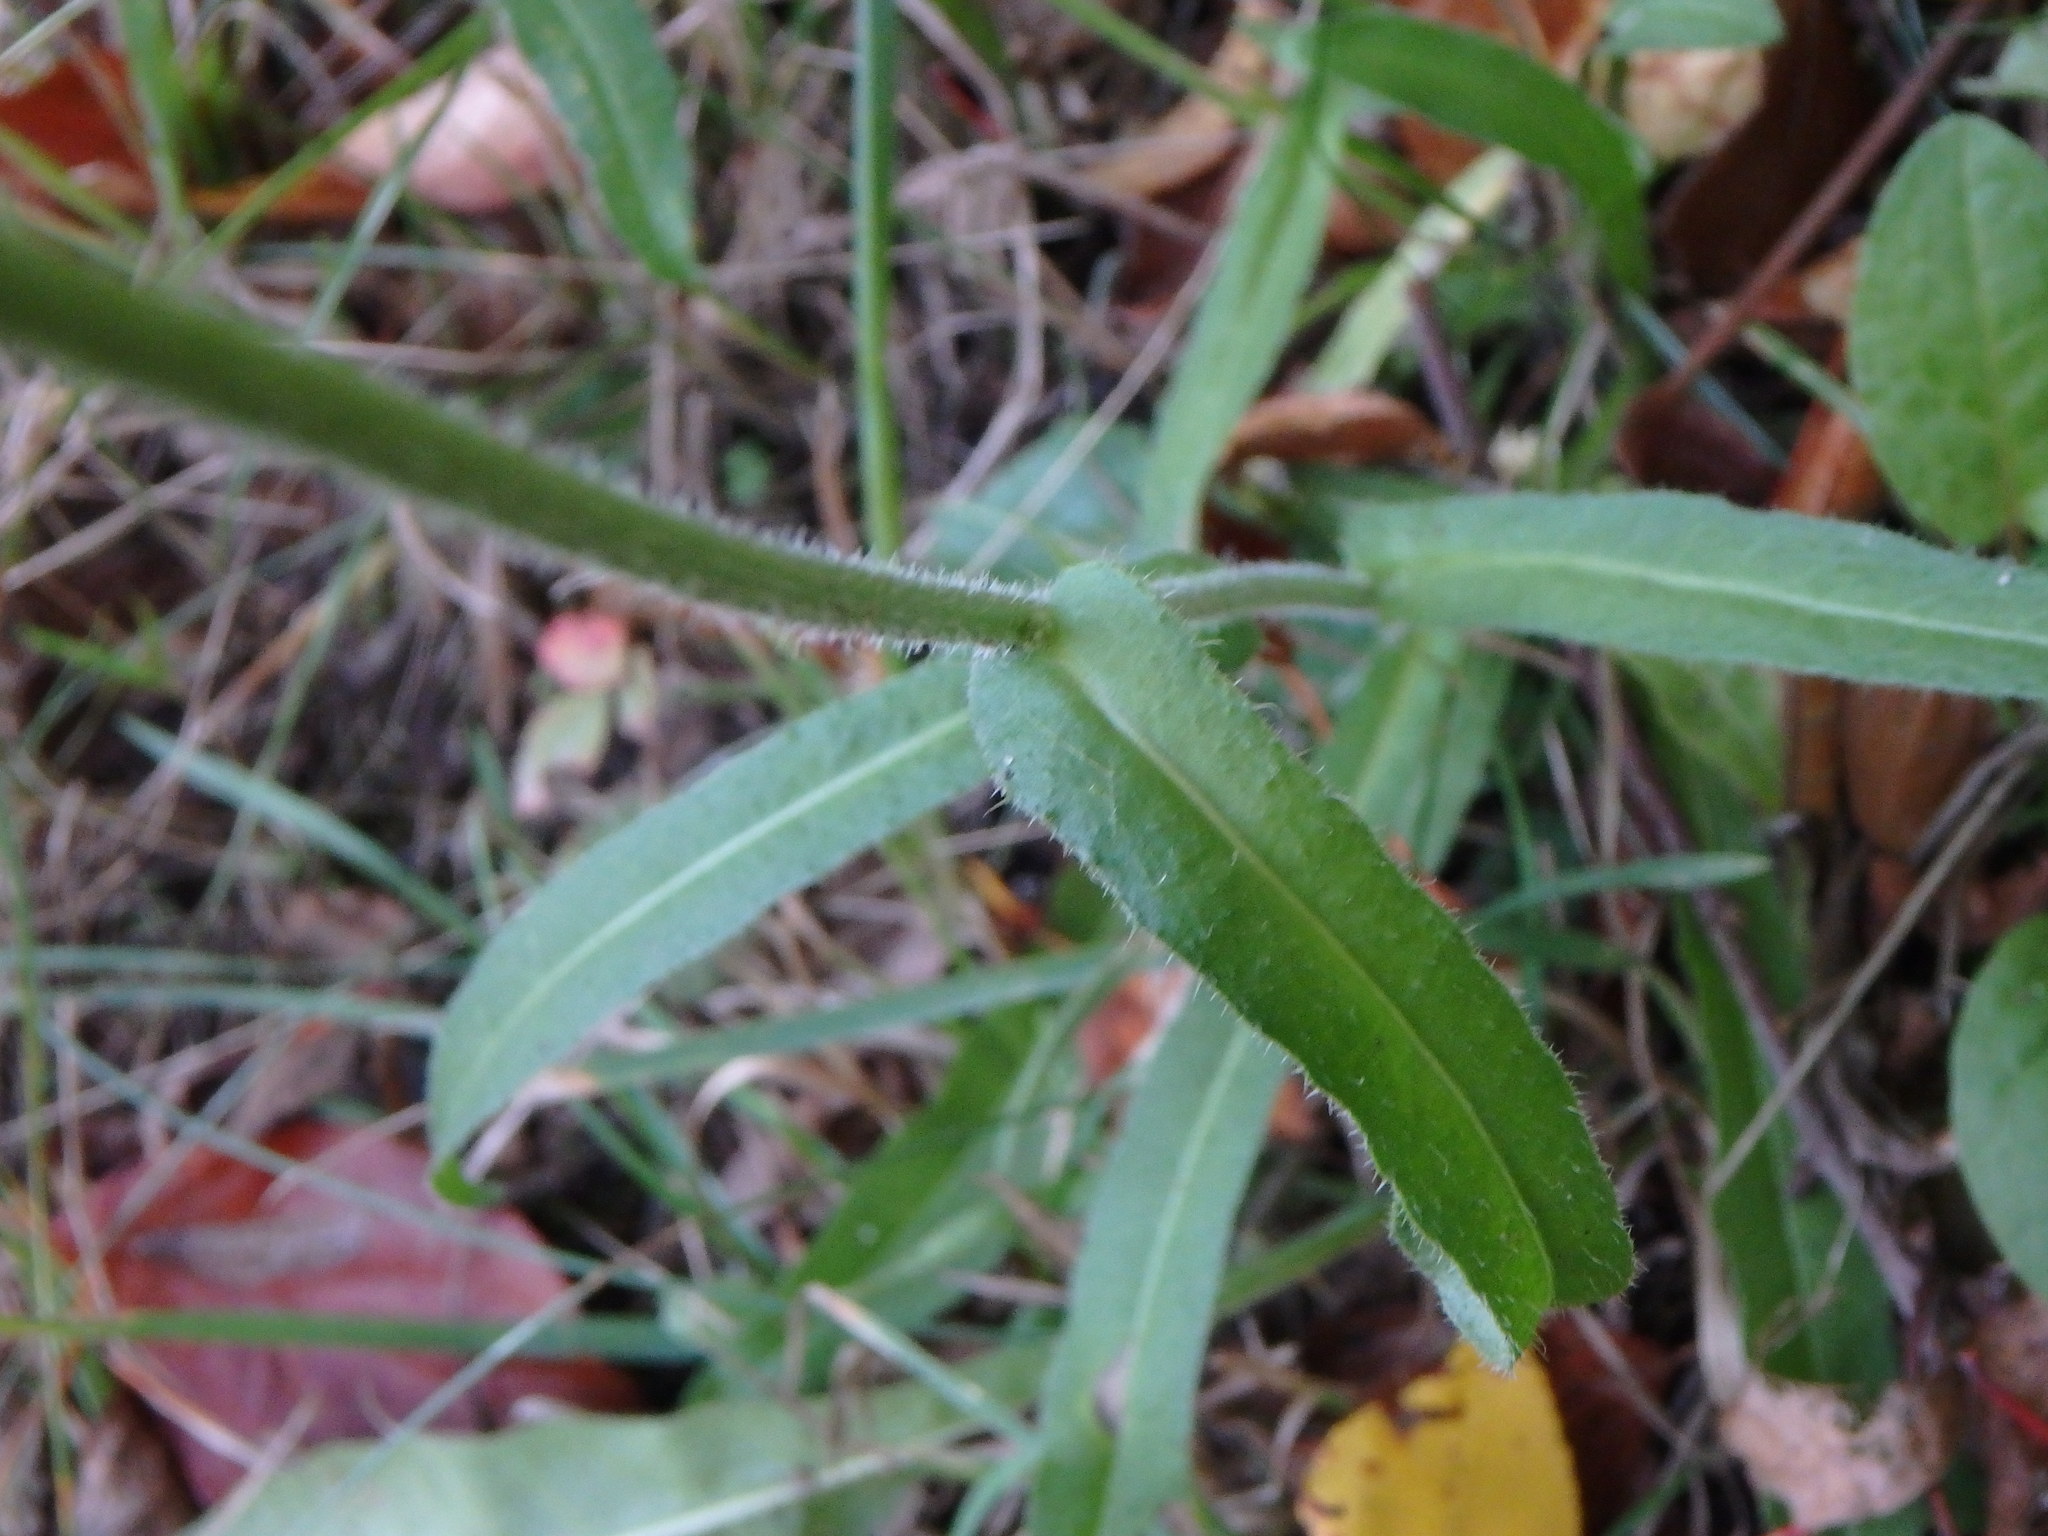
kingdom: Plantae
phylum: Tracheophyta
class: Magnoliopsida
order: Asterales
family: Asteraceae
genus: Picris
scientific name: Picris hieracioides
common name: Hawkweed oxtongue
